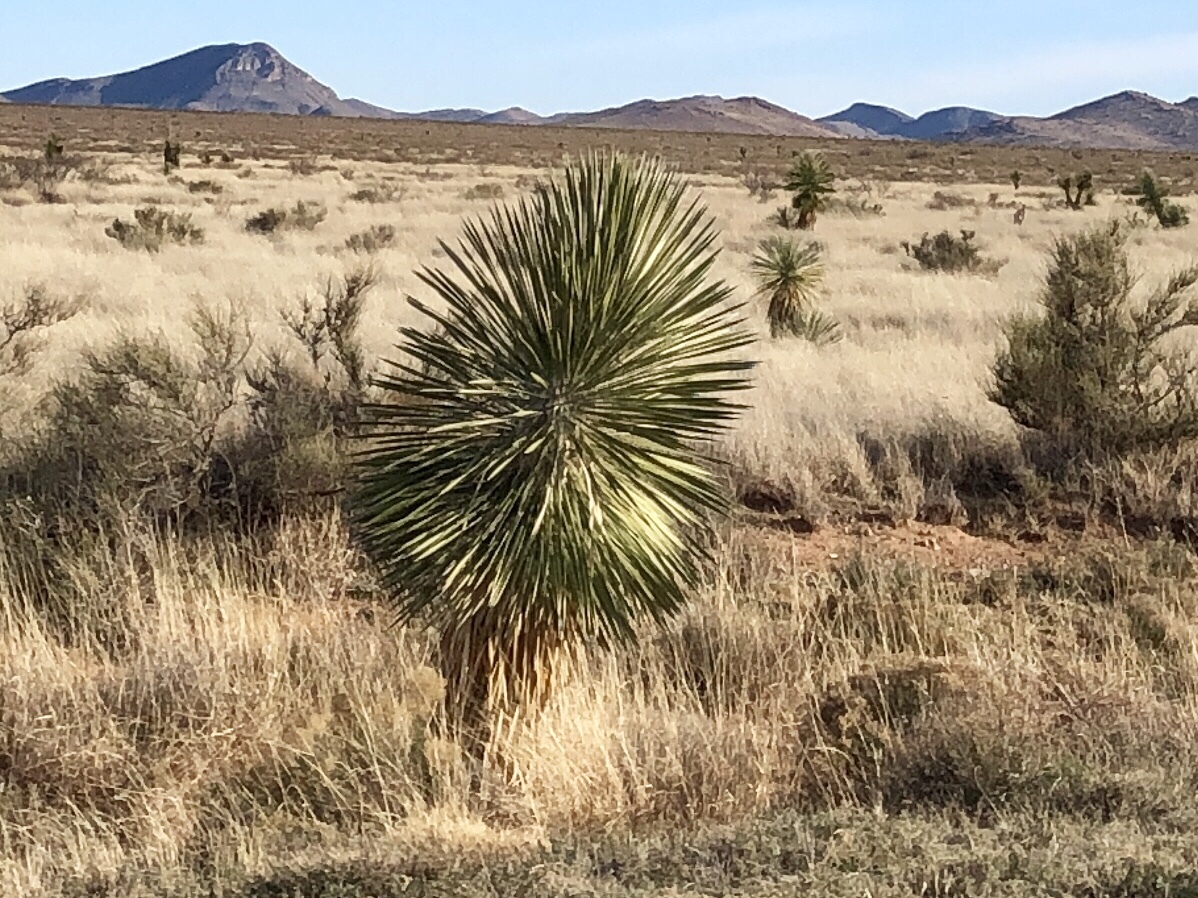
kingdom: Plantae
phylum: Tracheophyta
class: Liliopsida
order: Asparagales
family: Asparagaceae
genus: Yucca
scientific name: Yucca elata
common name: Palmella
